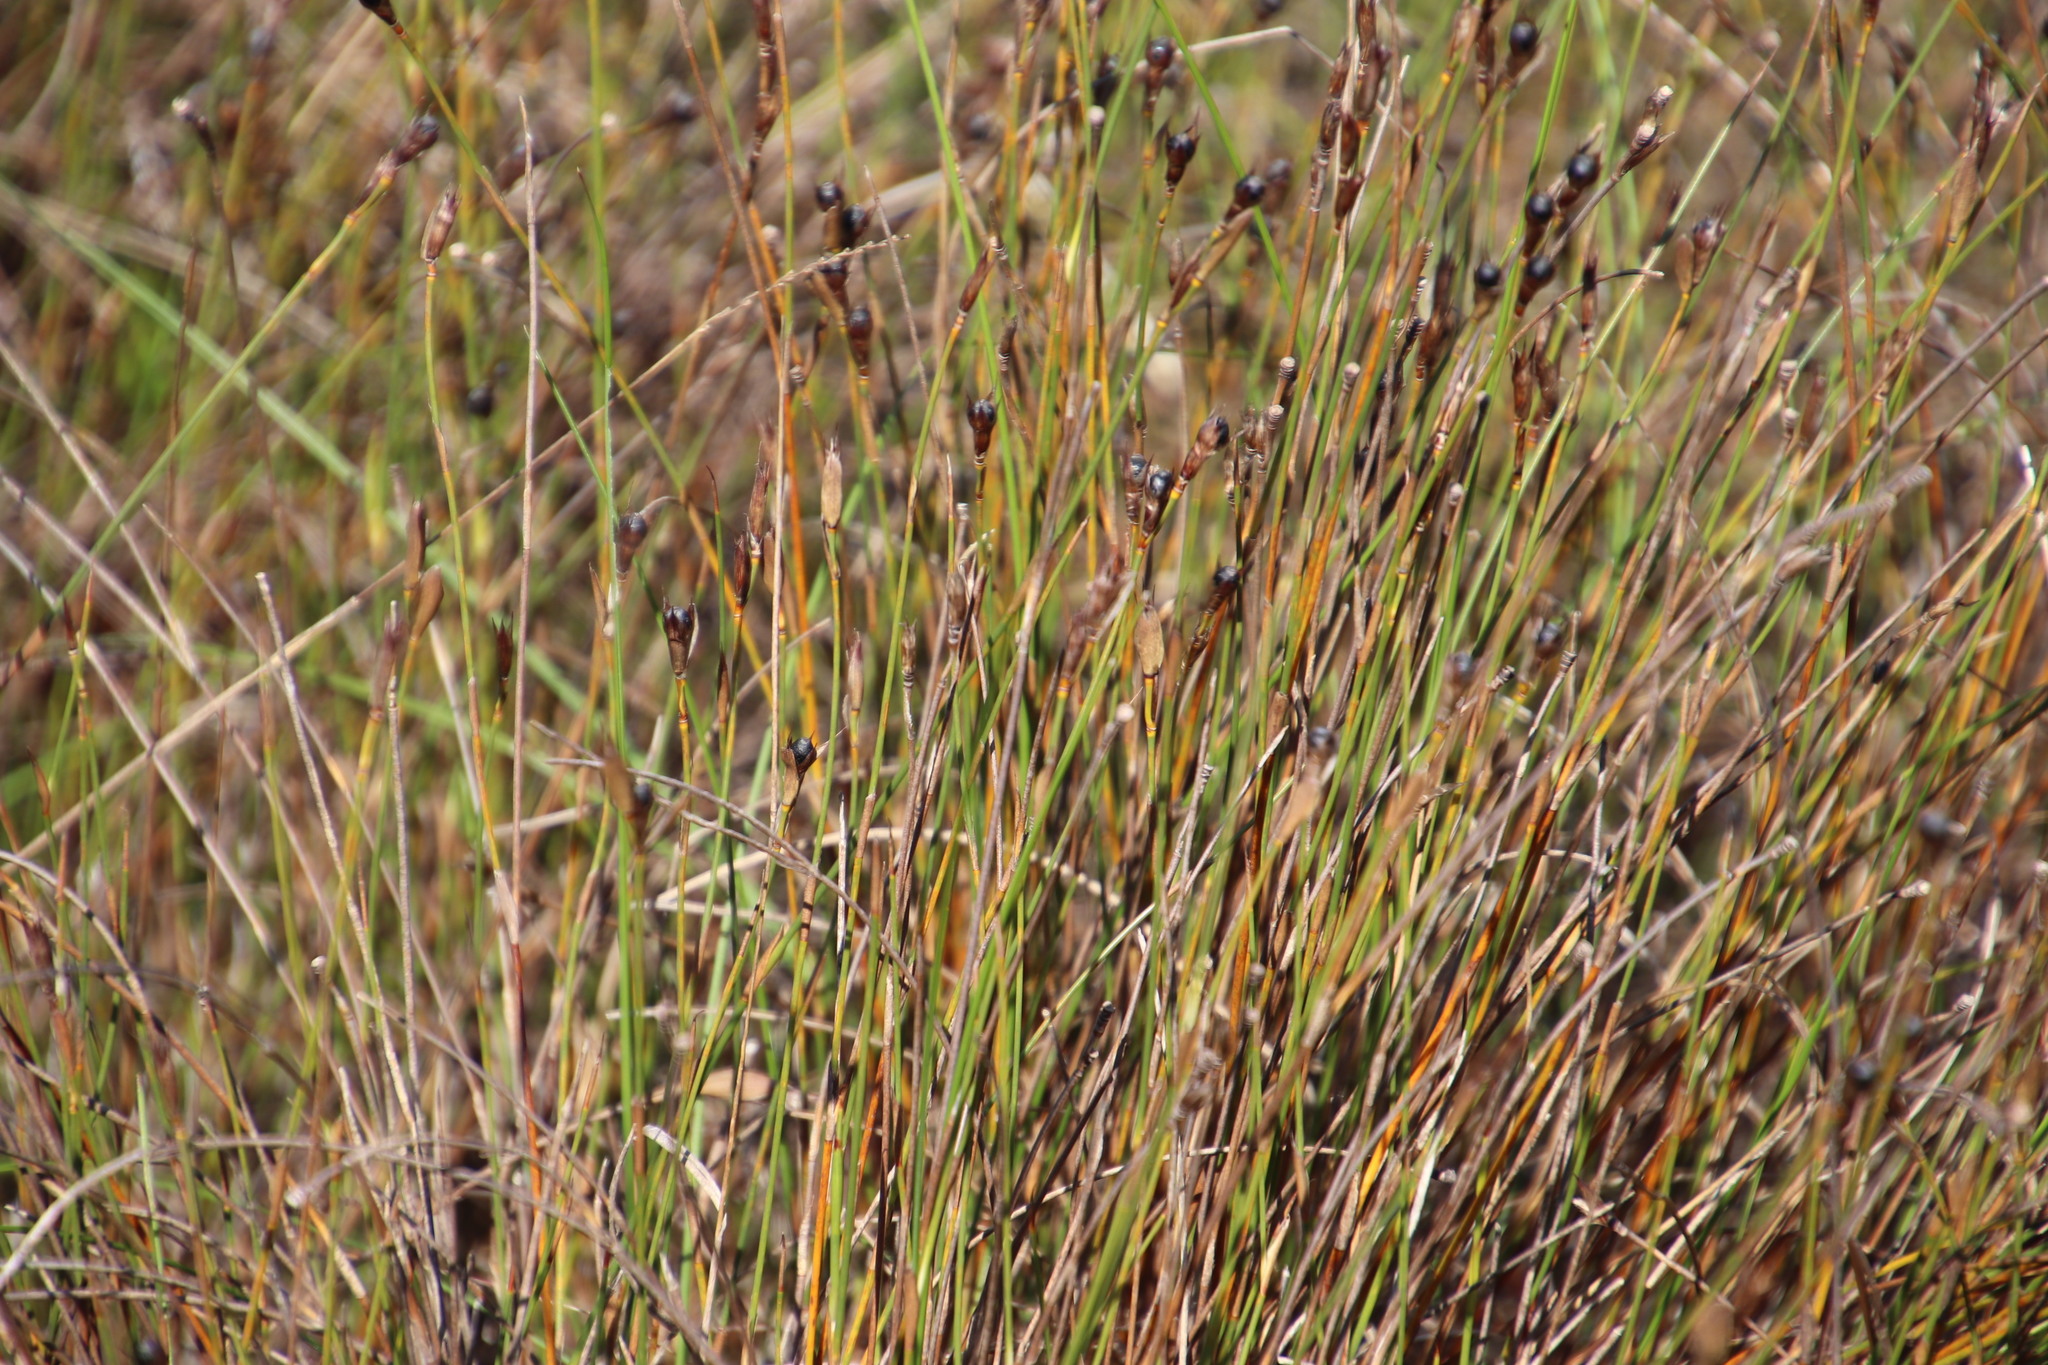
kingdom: Plantae
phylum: Tracheophyta
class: Liliopsida
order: Poales
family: Restionaceae
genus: Willdenowia
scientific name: Willdenowia sulcata
